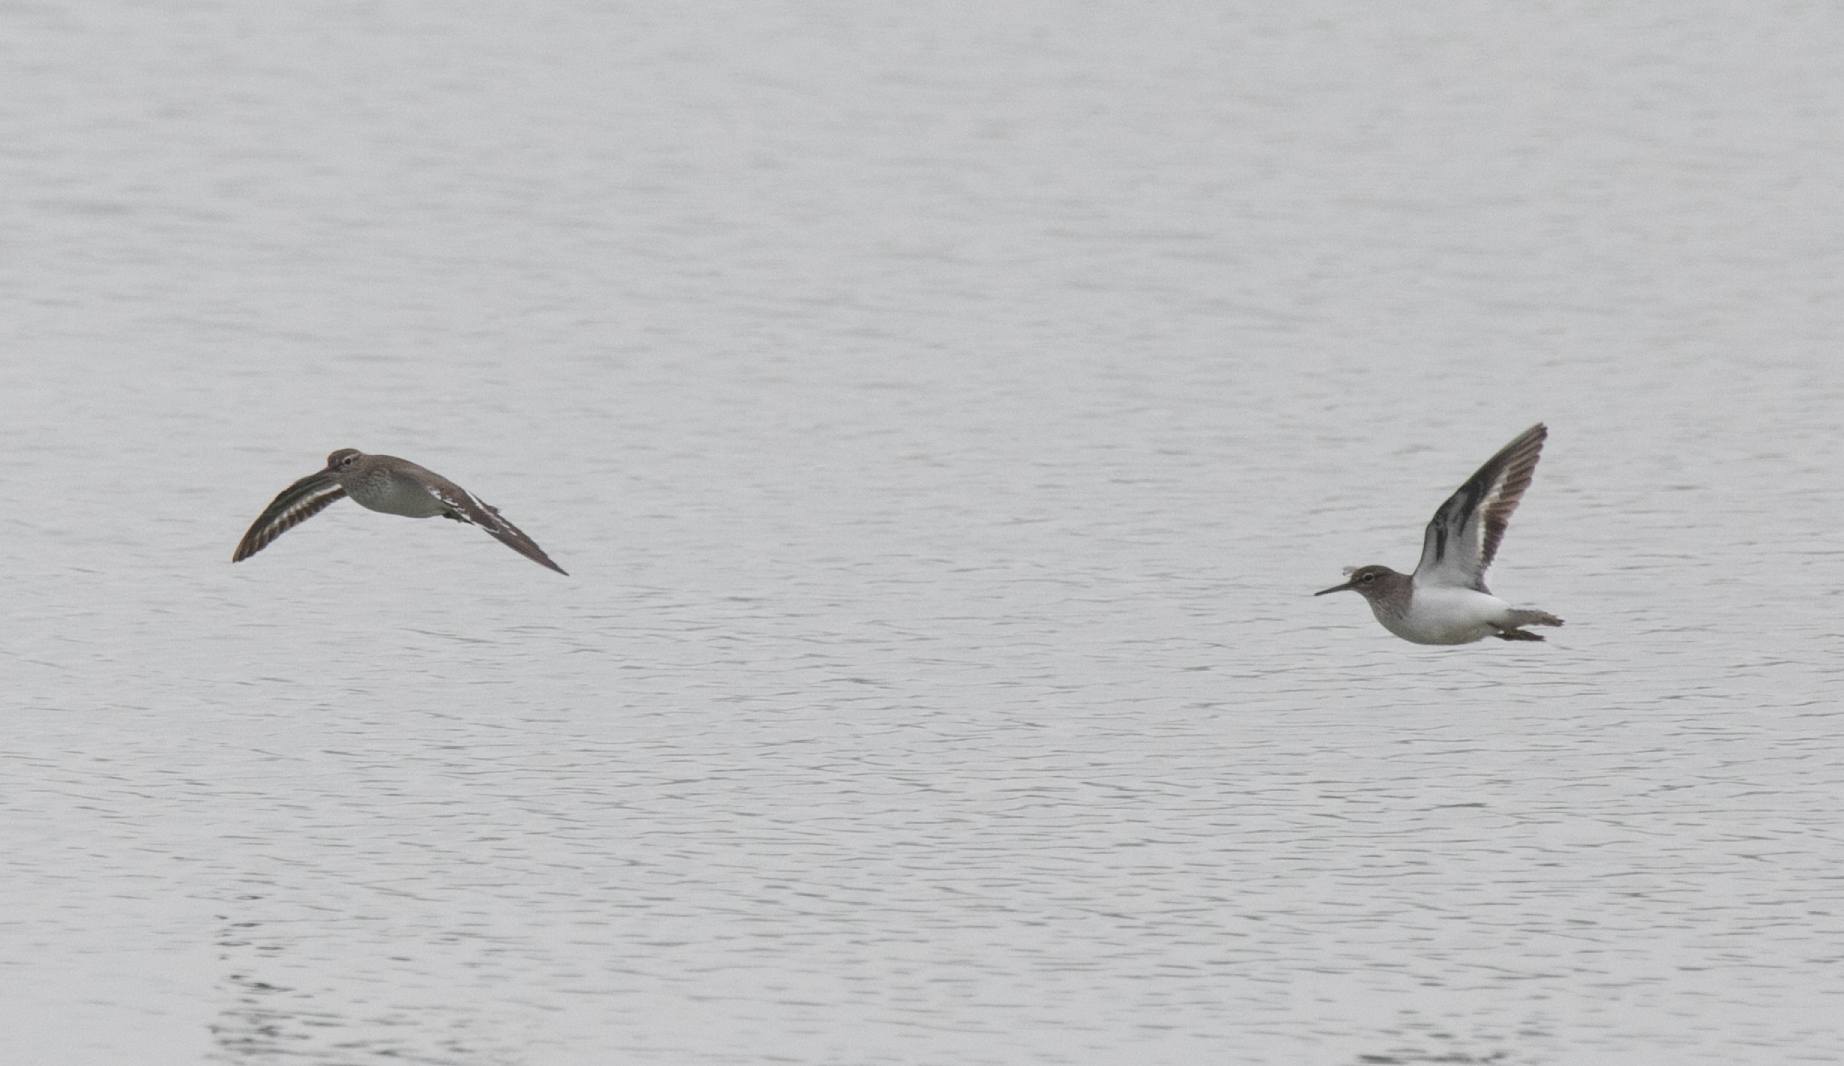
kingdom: Animalia
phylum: Chordata
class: Aves
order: Charadriiformes
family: Scolopacidae
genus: Actitis
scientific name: Actitis hypoleucos
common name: Common sandpiper
